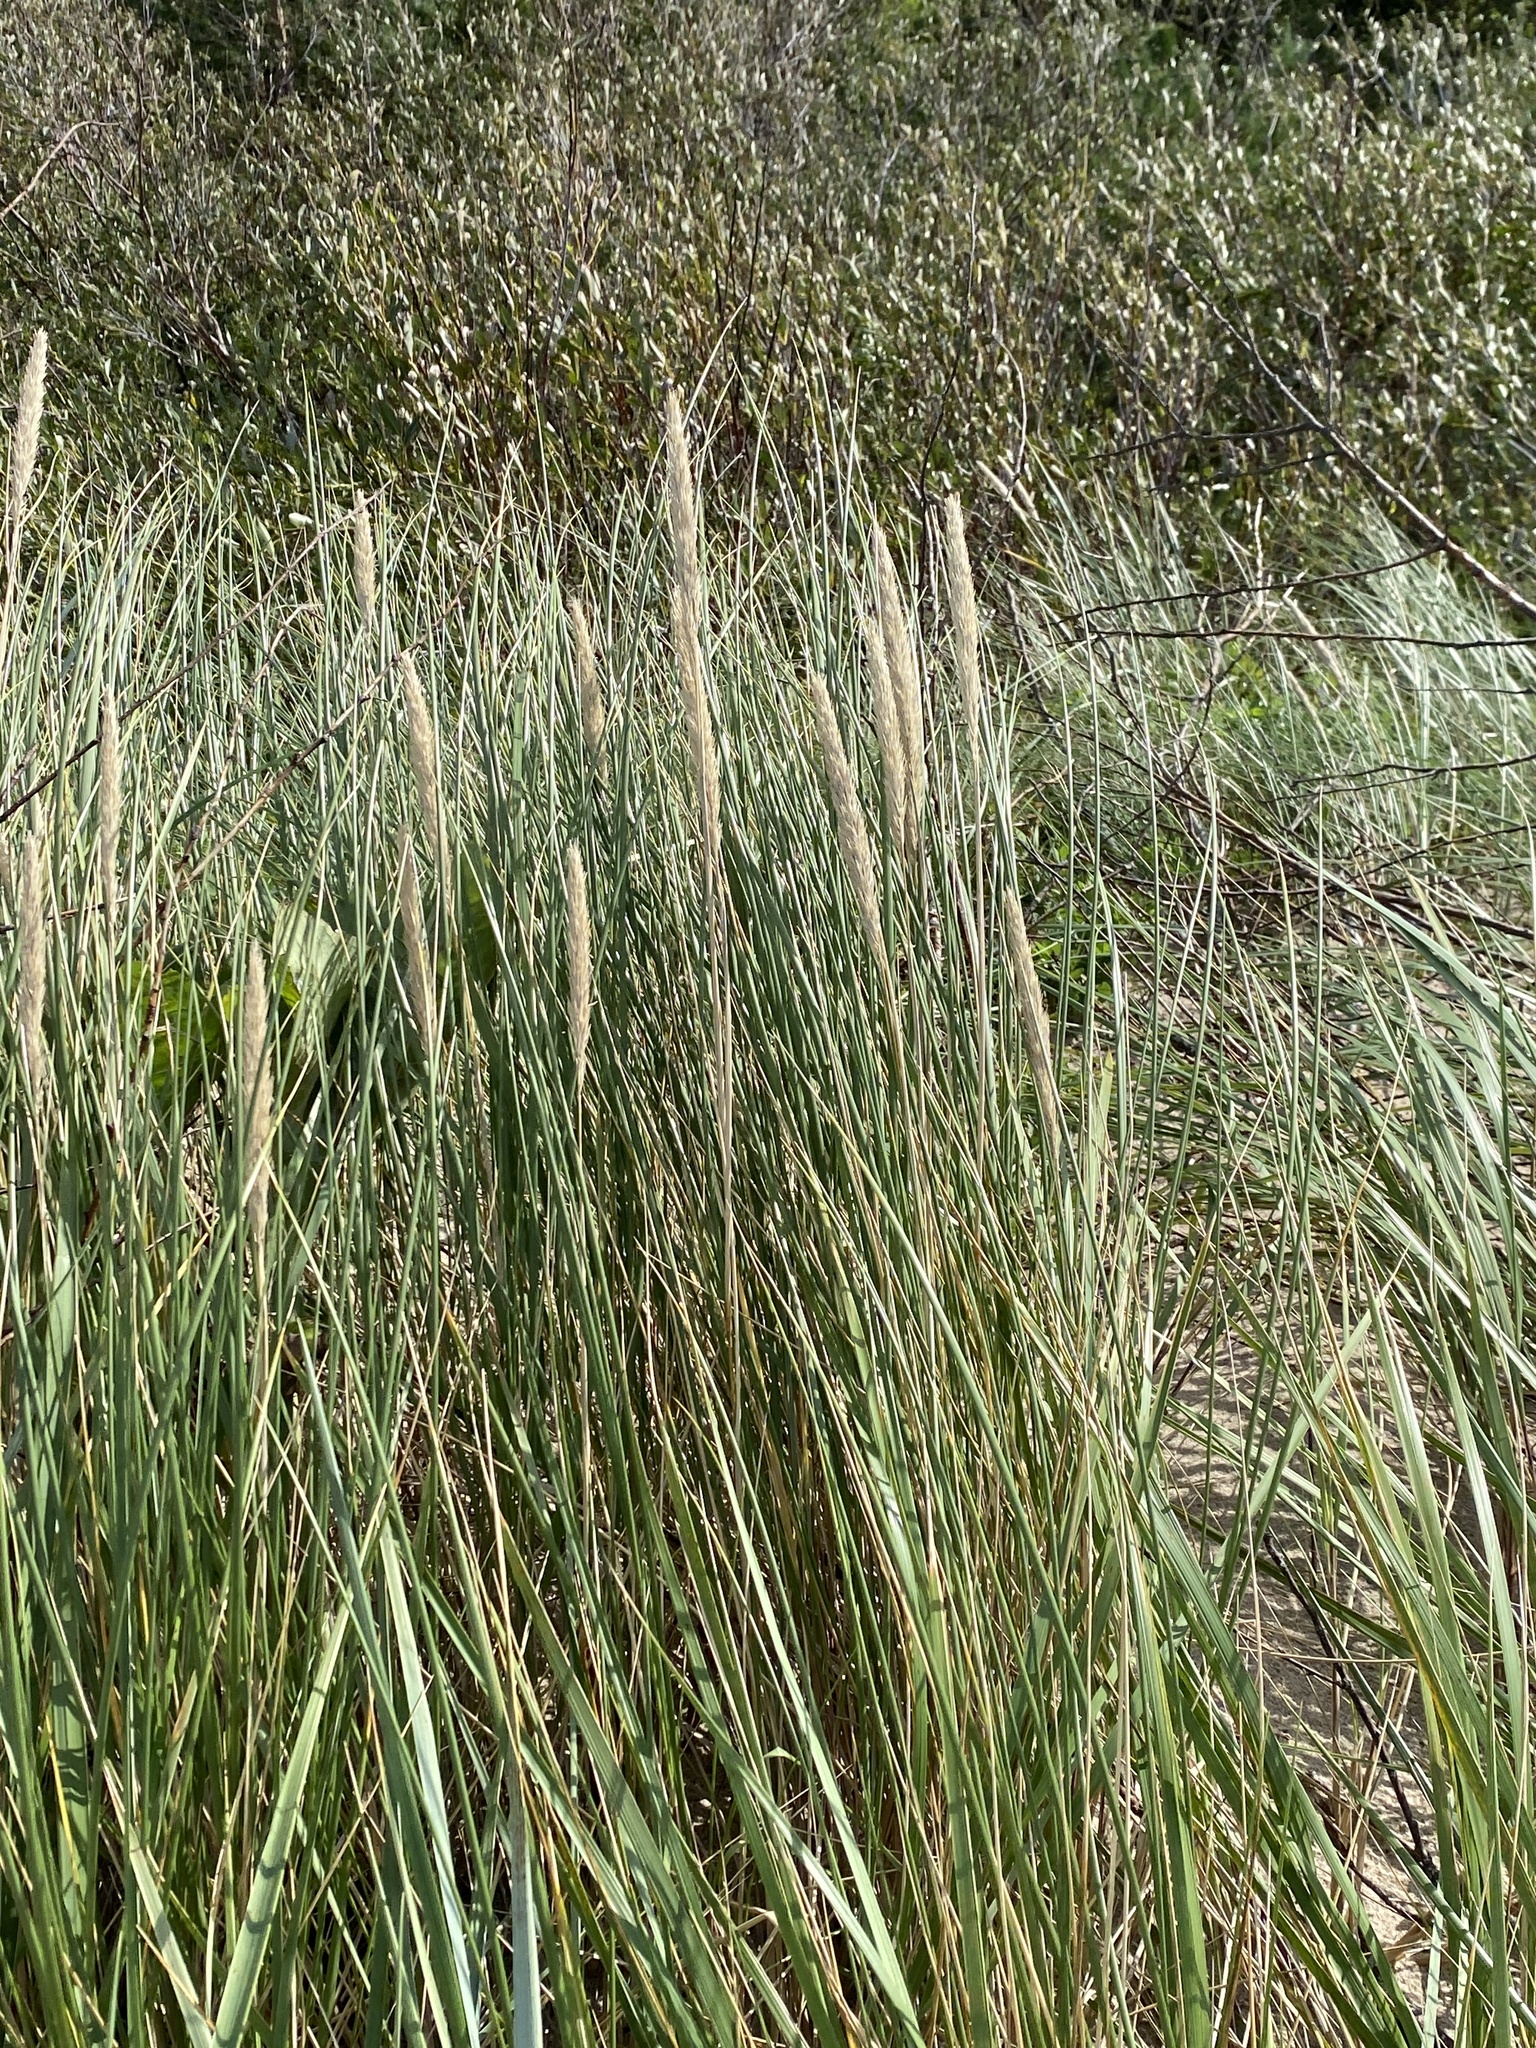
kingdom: Plantae
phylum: Tracheophyta
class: Liliopsida
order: Poales
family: Poaceae
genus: Calamagrostis
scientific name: Calamagrostis arenaria
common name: European beachgrass
